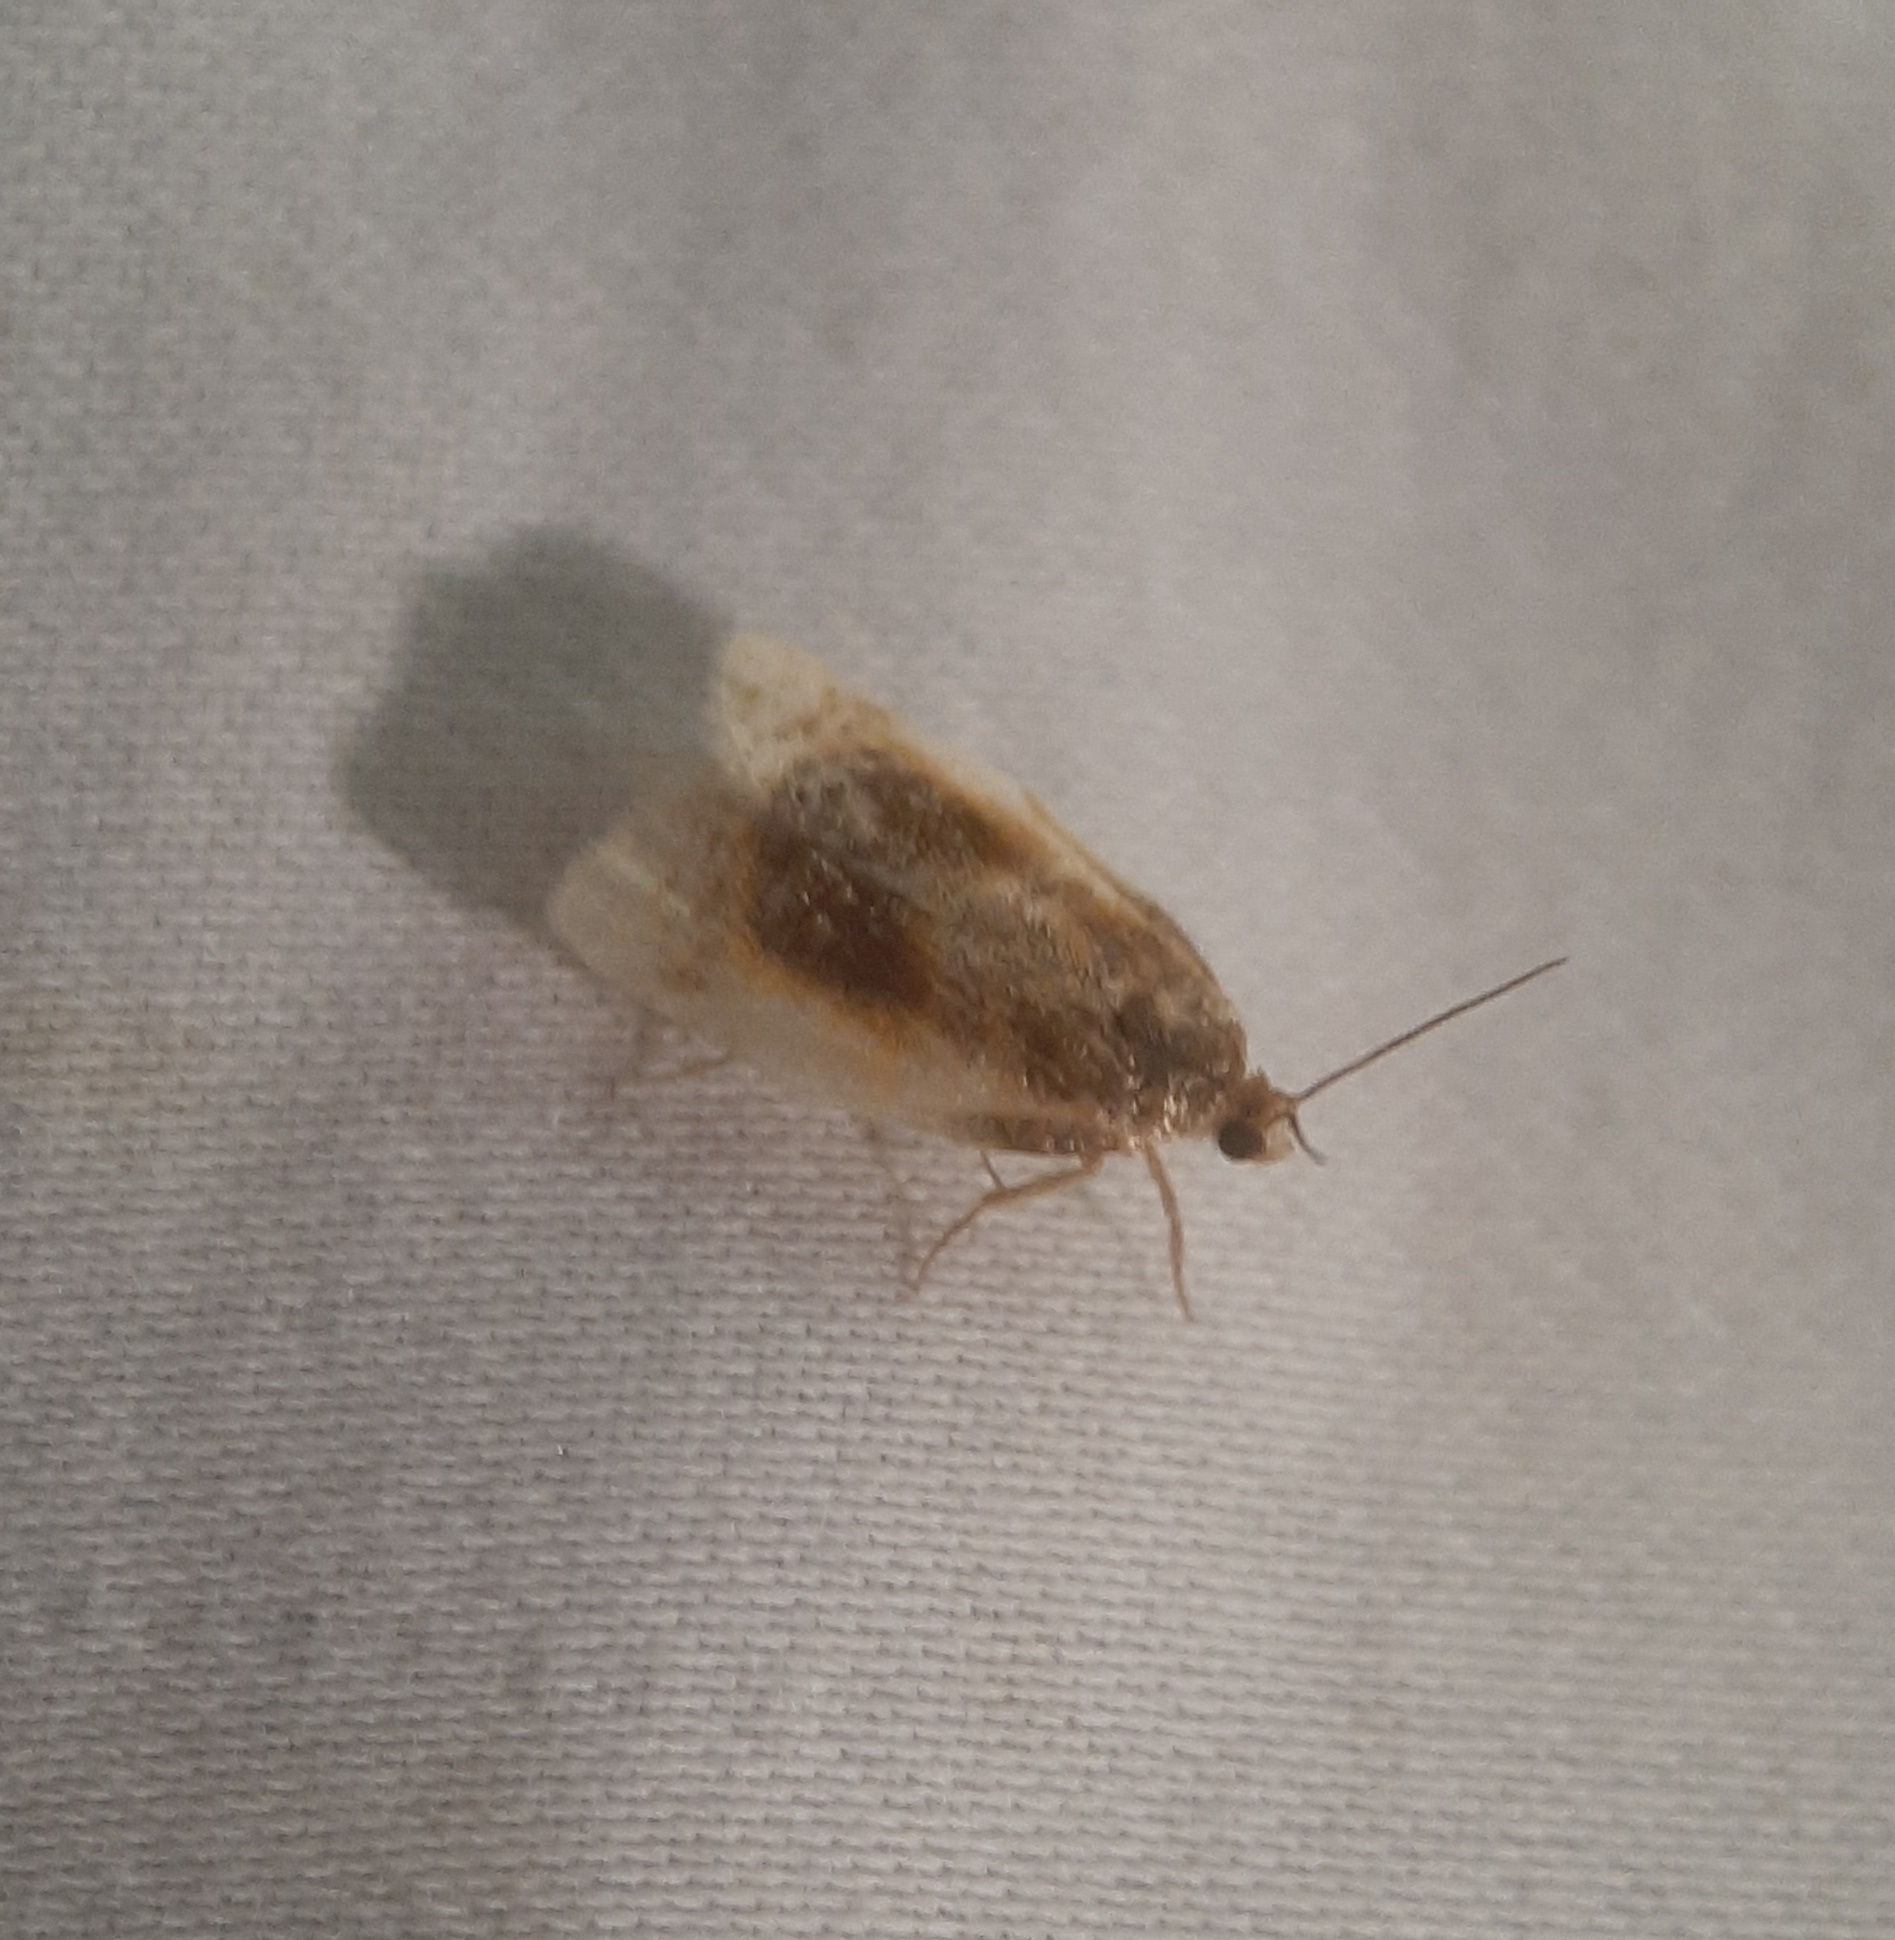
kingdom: Animalia
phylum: Arthropoda
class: Insecta
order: Lepidoptera
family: Tortricidae
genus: Clepsis
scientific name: Clepsis melaleucanus
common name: American apple tortrix
